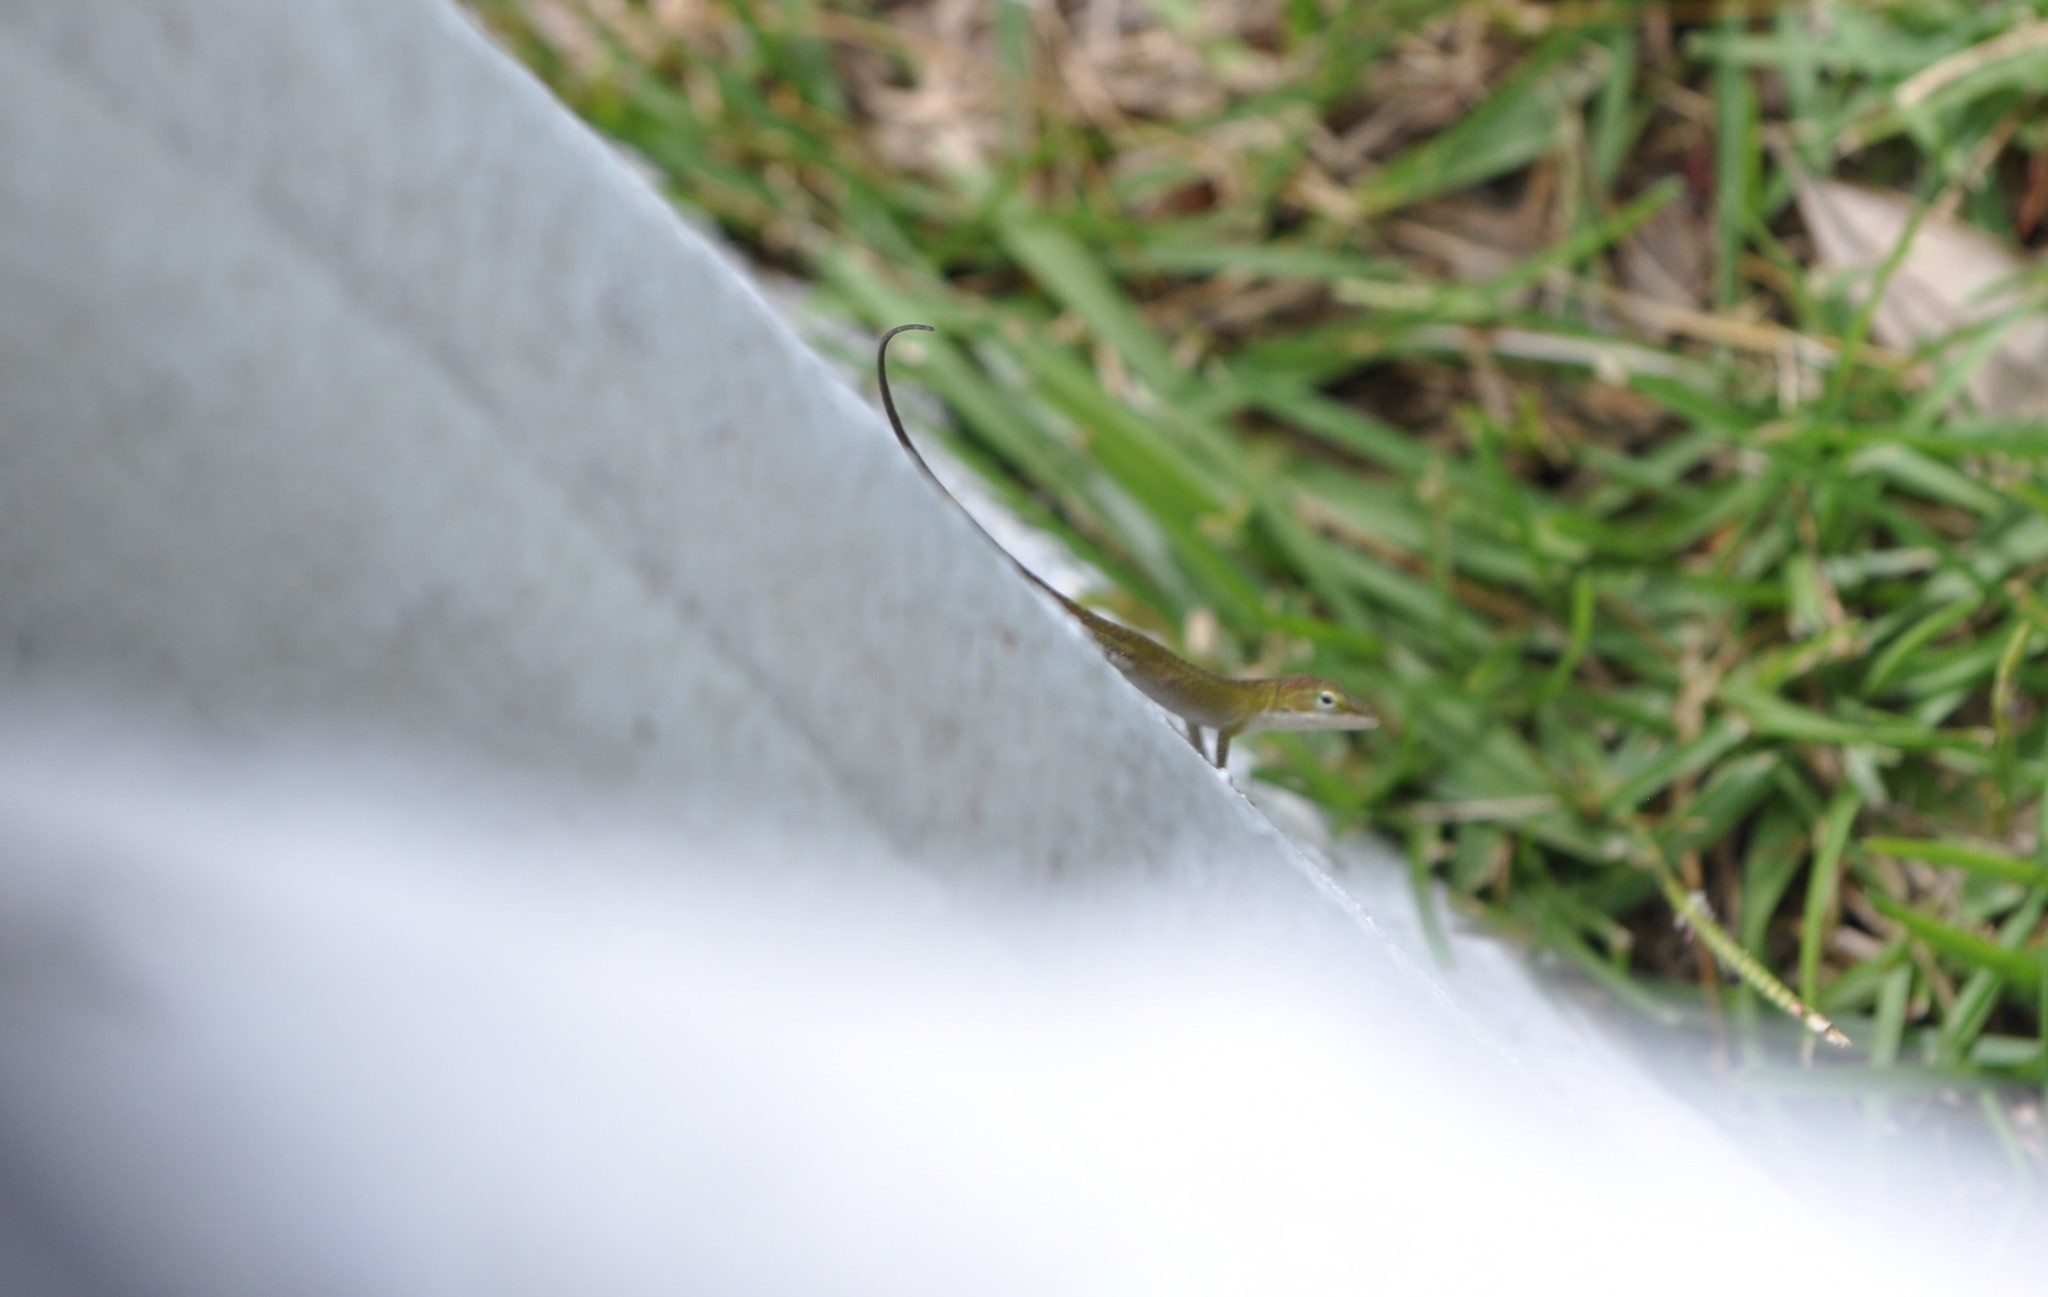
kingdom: Animalia
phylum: Chordata
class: Squamata
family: Dactyloidae
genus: Anolis
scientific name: Anolis carolinensis
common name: Green anole
